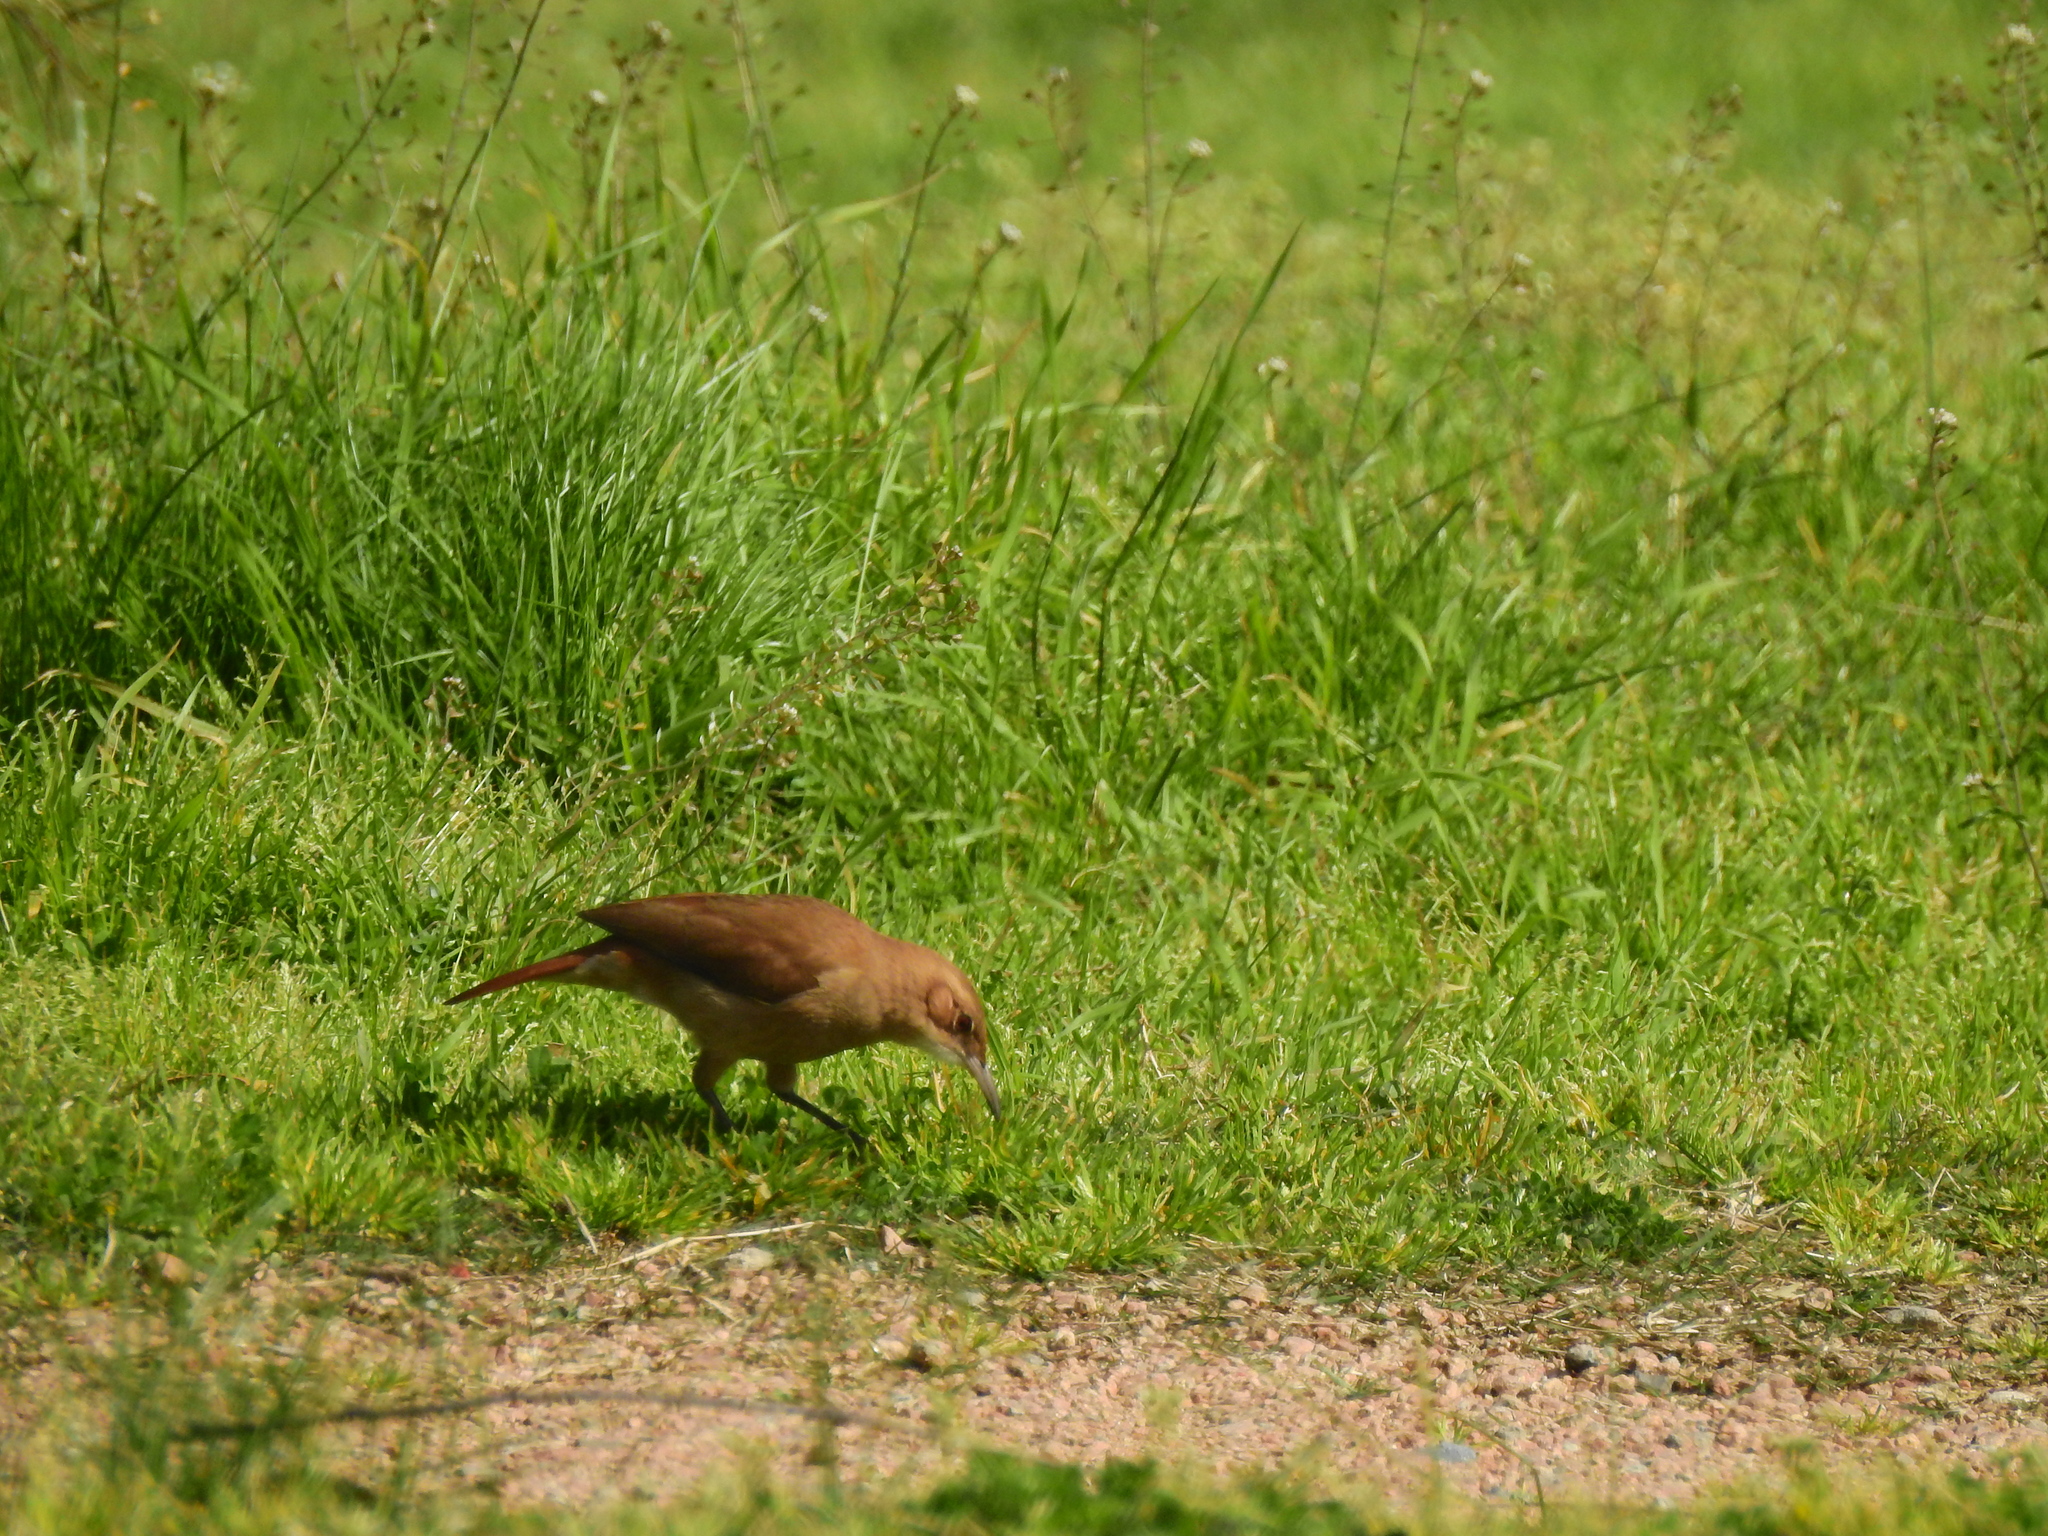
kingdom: Animalia
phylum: Chordata
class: Aves
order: Passeriformes
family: Furnariidae
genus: Furnarius
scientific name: Furnarius rufus
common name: Rufous hornero
